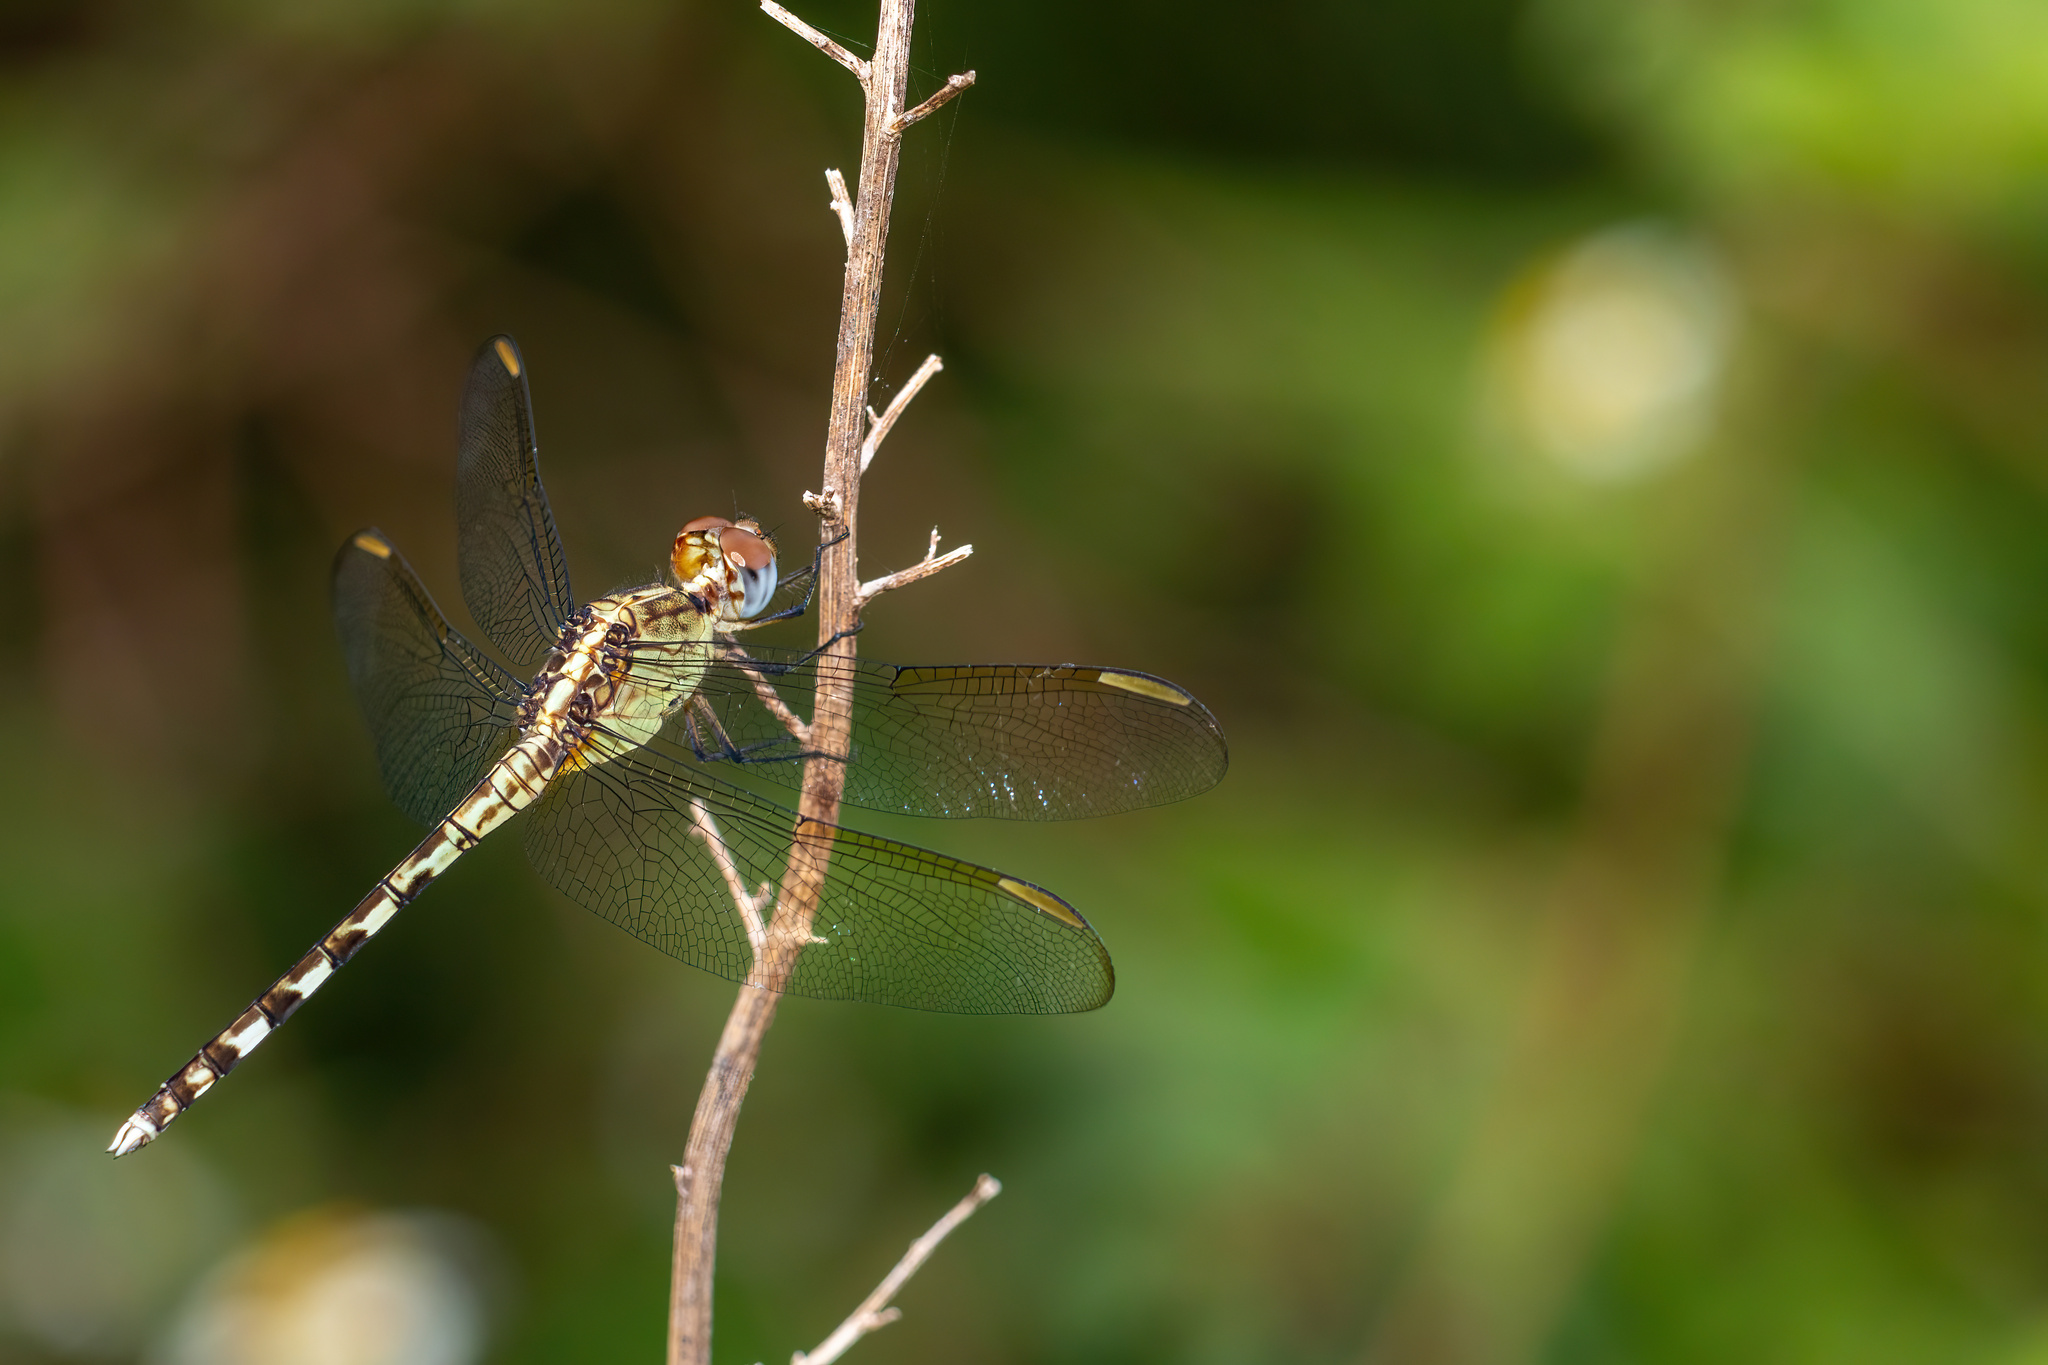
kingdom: Animalia
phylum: Arthropoda
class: Insecta
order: Odonata
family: Libellulidae
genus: Erythrodiplax
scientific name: Erythrodiplax umbrata
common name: Band-winged dragonlet
